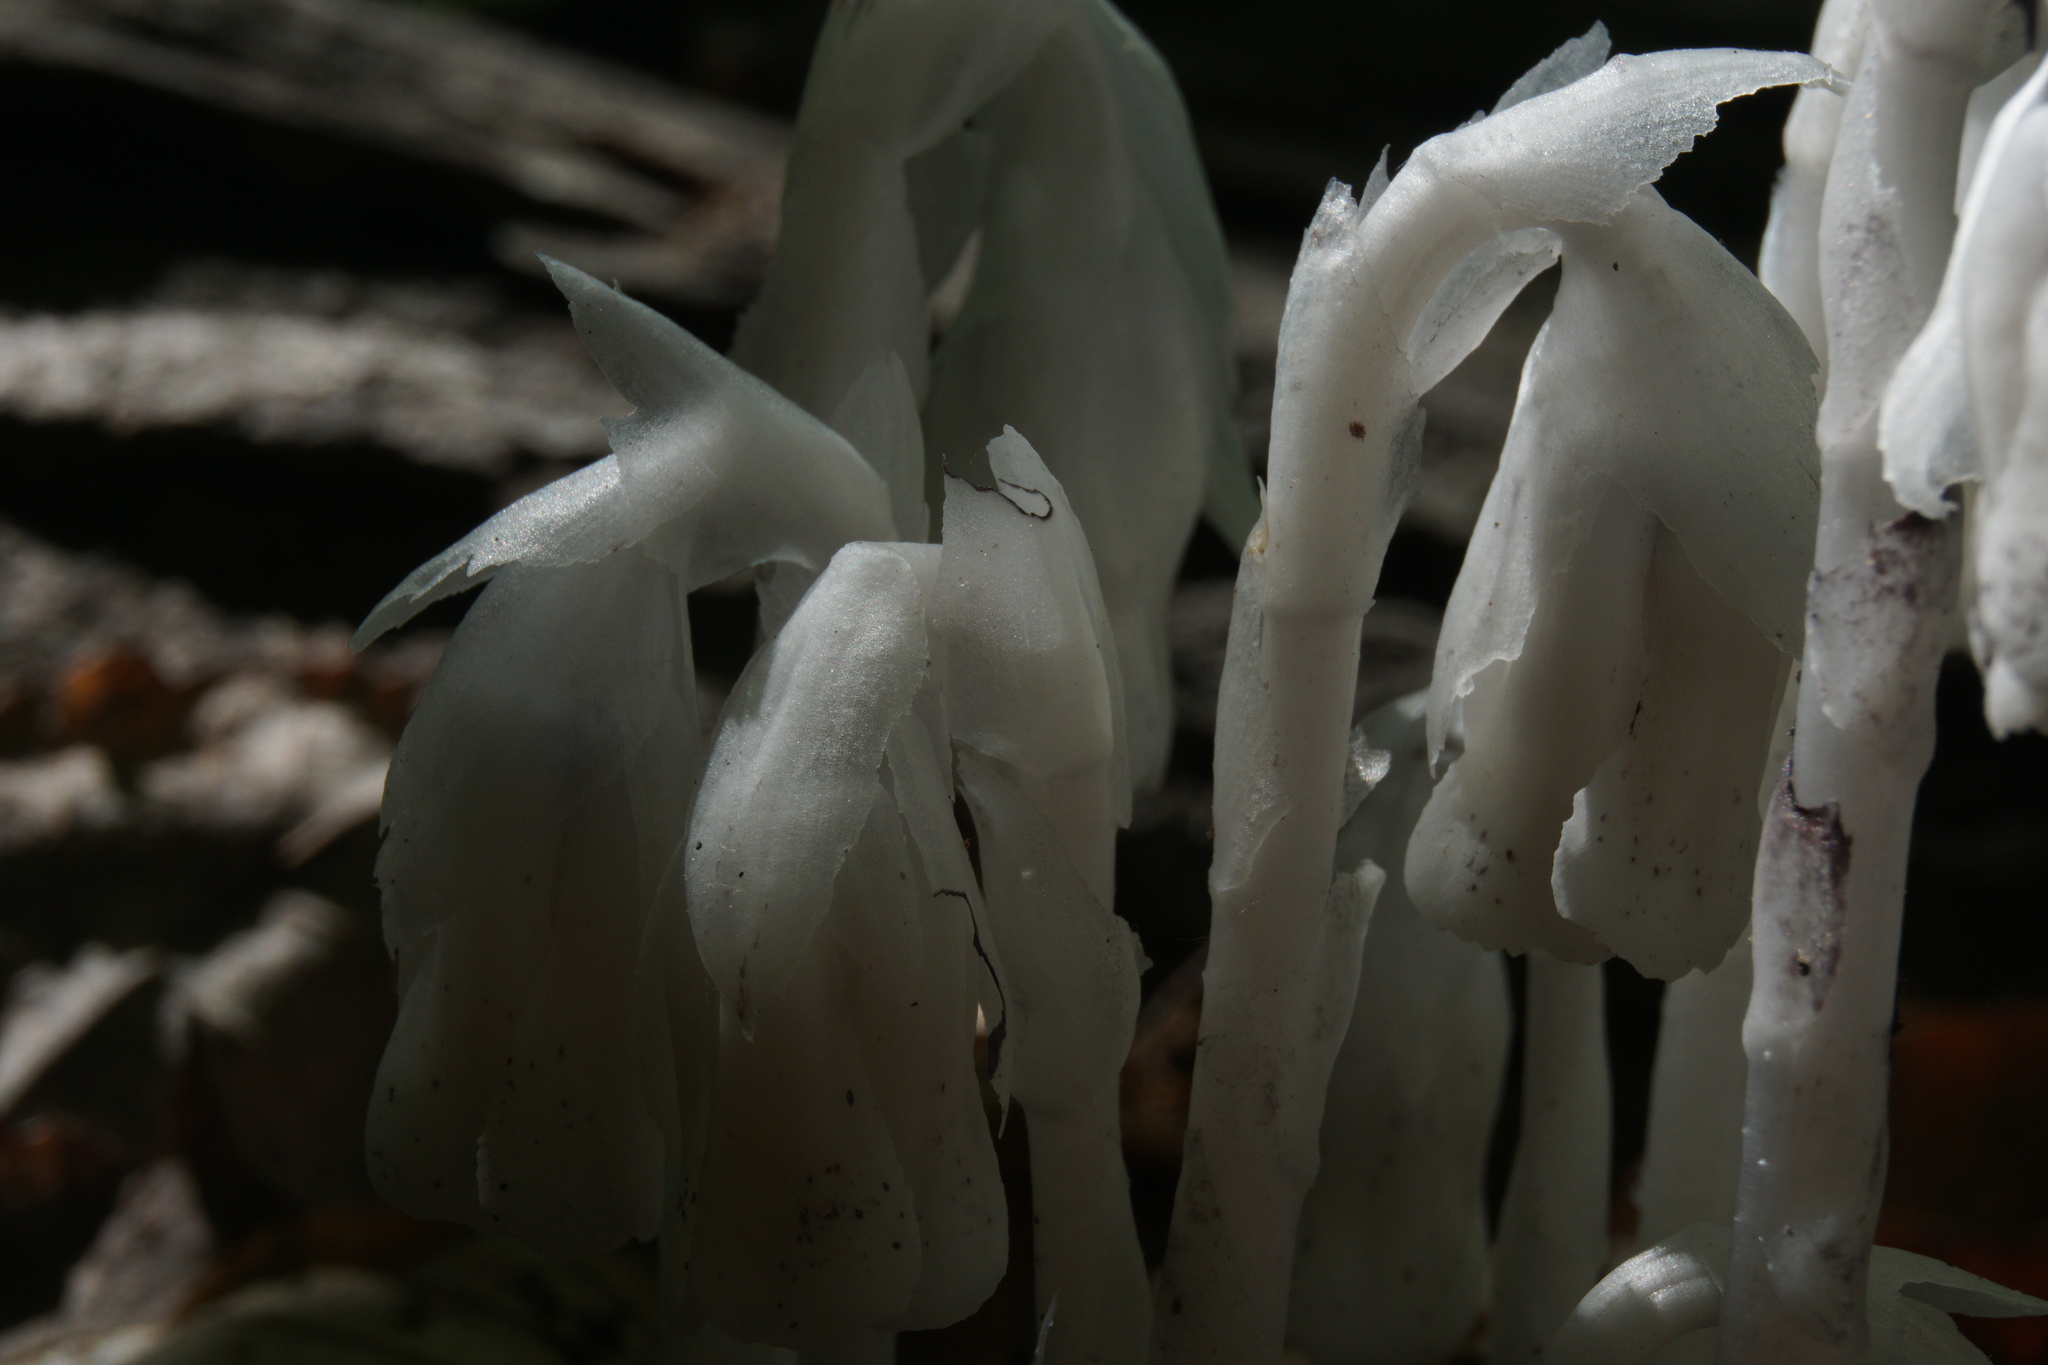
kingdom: Plantae
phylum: Tracheophyta
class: Magnoliopsida
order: Ericales
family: Ericaceae
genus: Monotropa
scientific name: Monotropa uniflora
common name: Convulsion root
